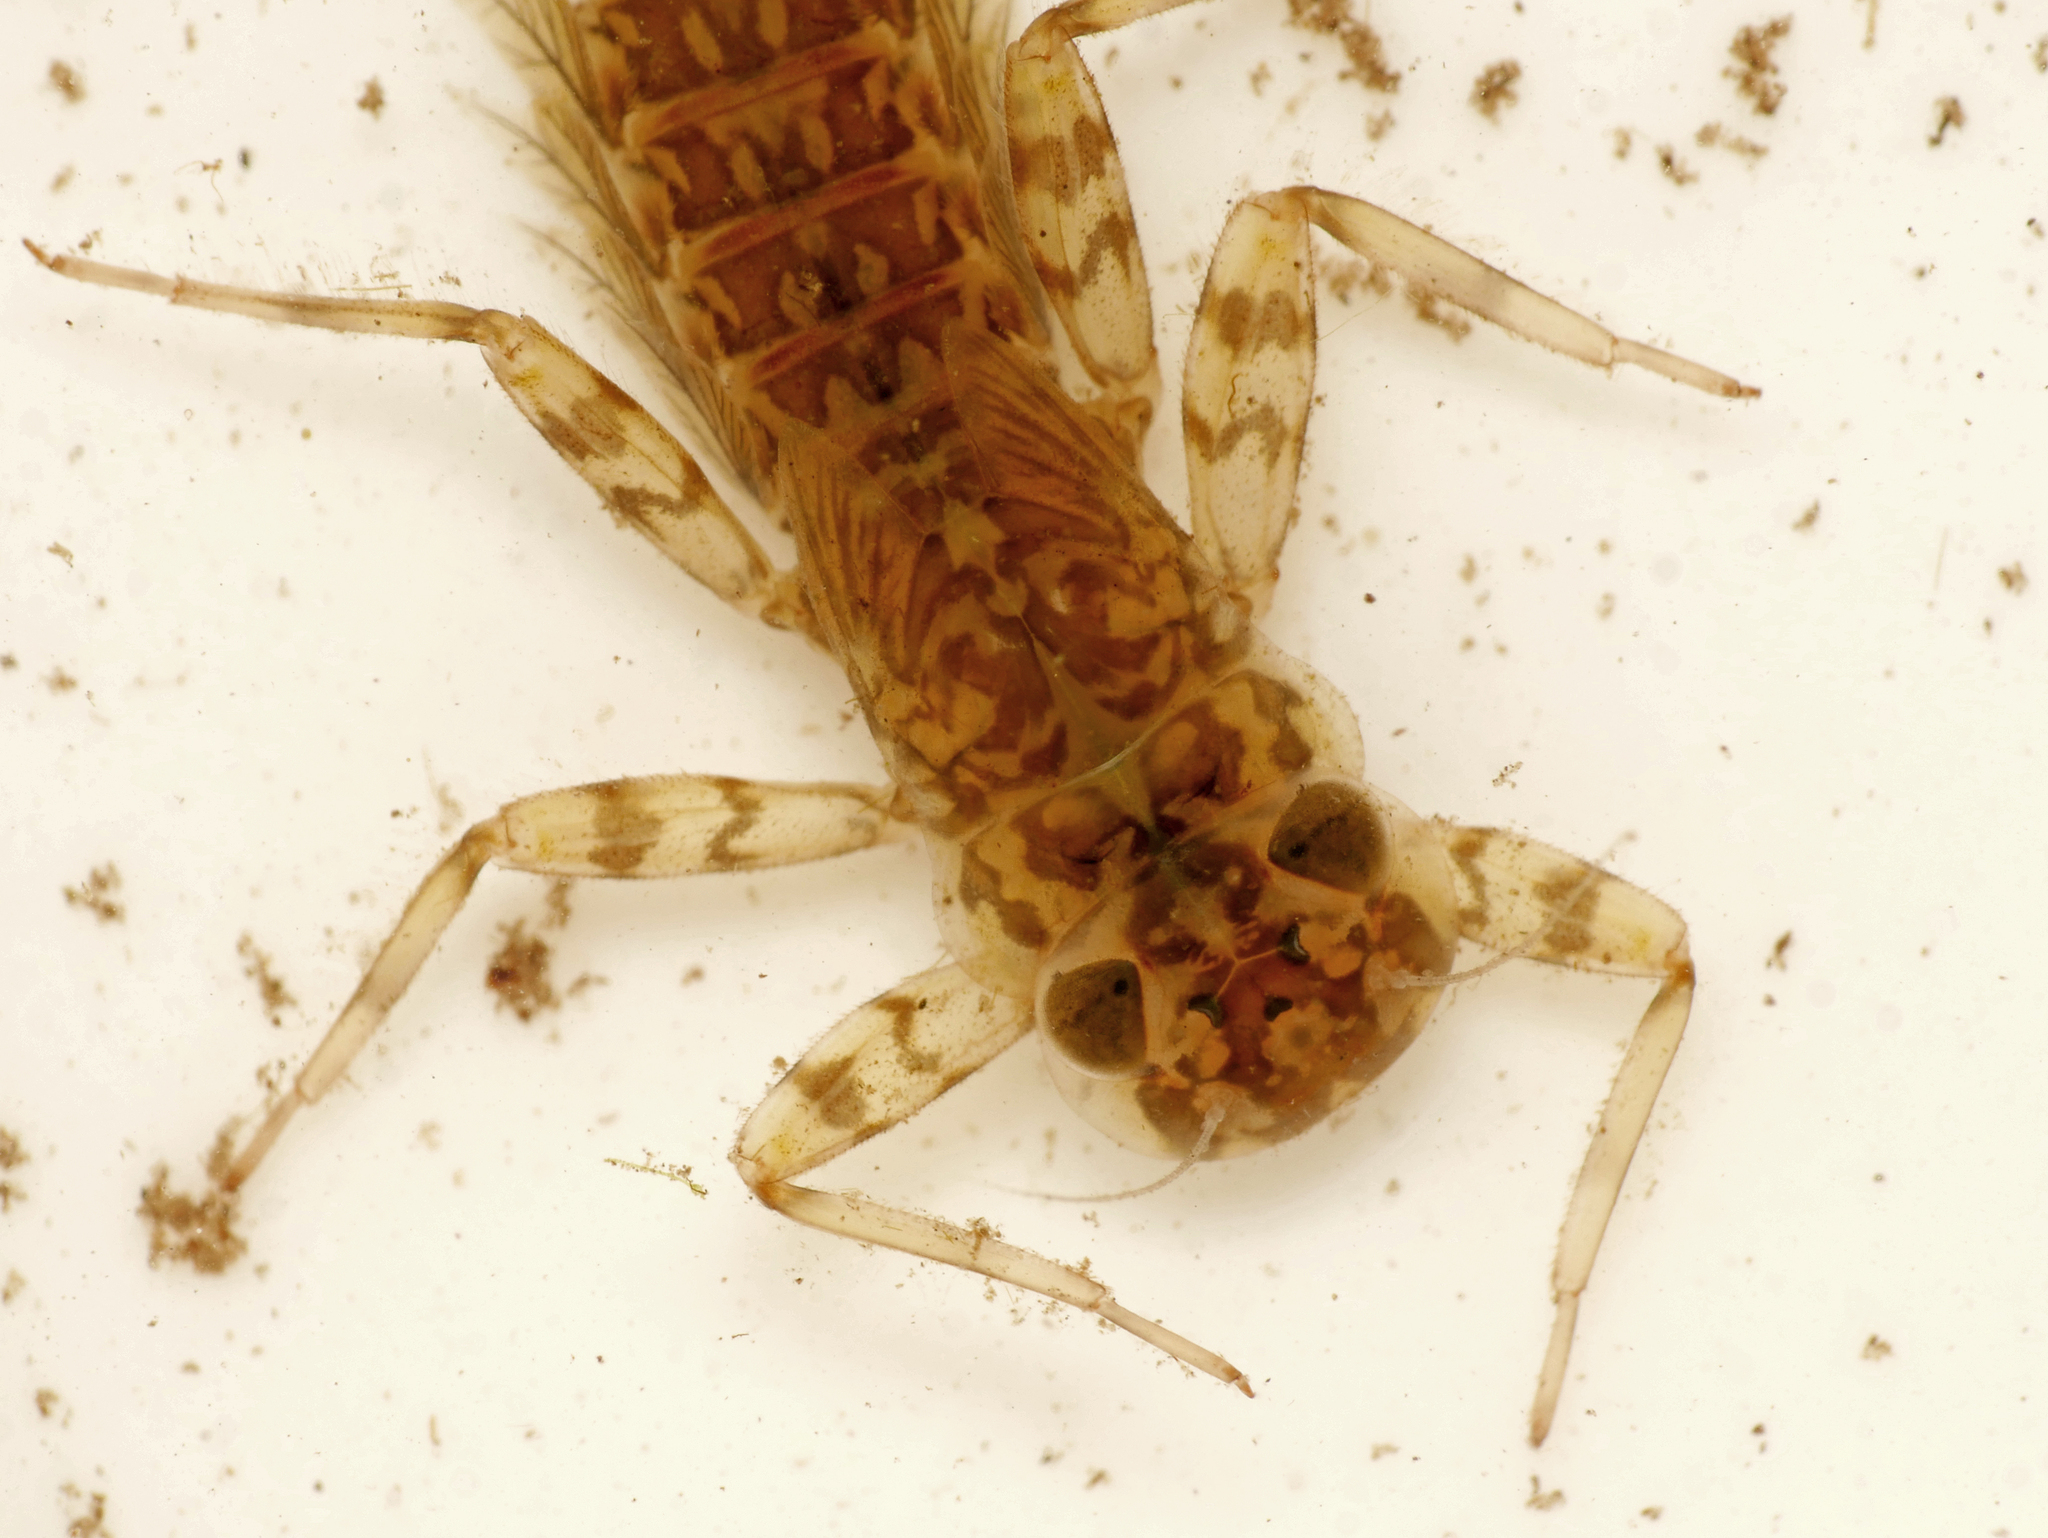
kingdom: Animalia
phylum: Arthropoda
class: Insecta
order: Ephemeroptera
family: Heptageniidae
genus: Kageronia
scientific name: Kageronia fuscogrisea
